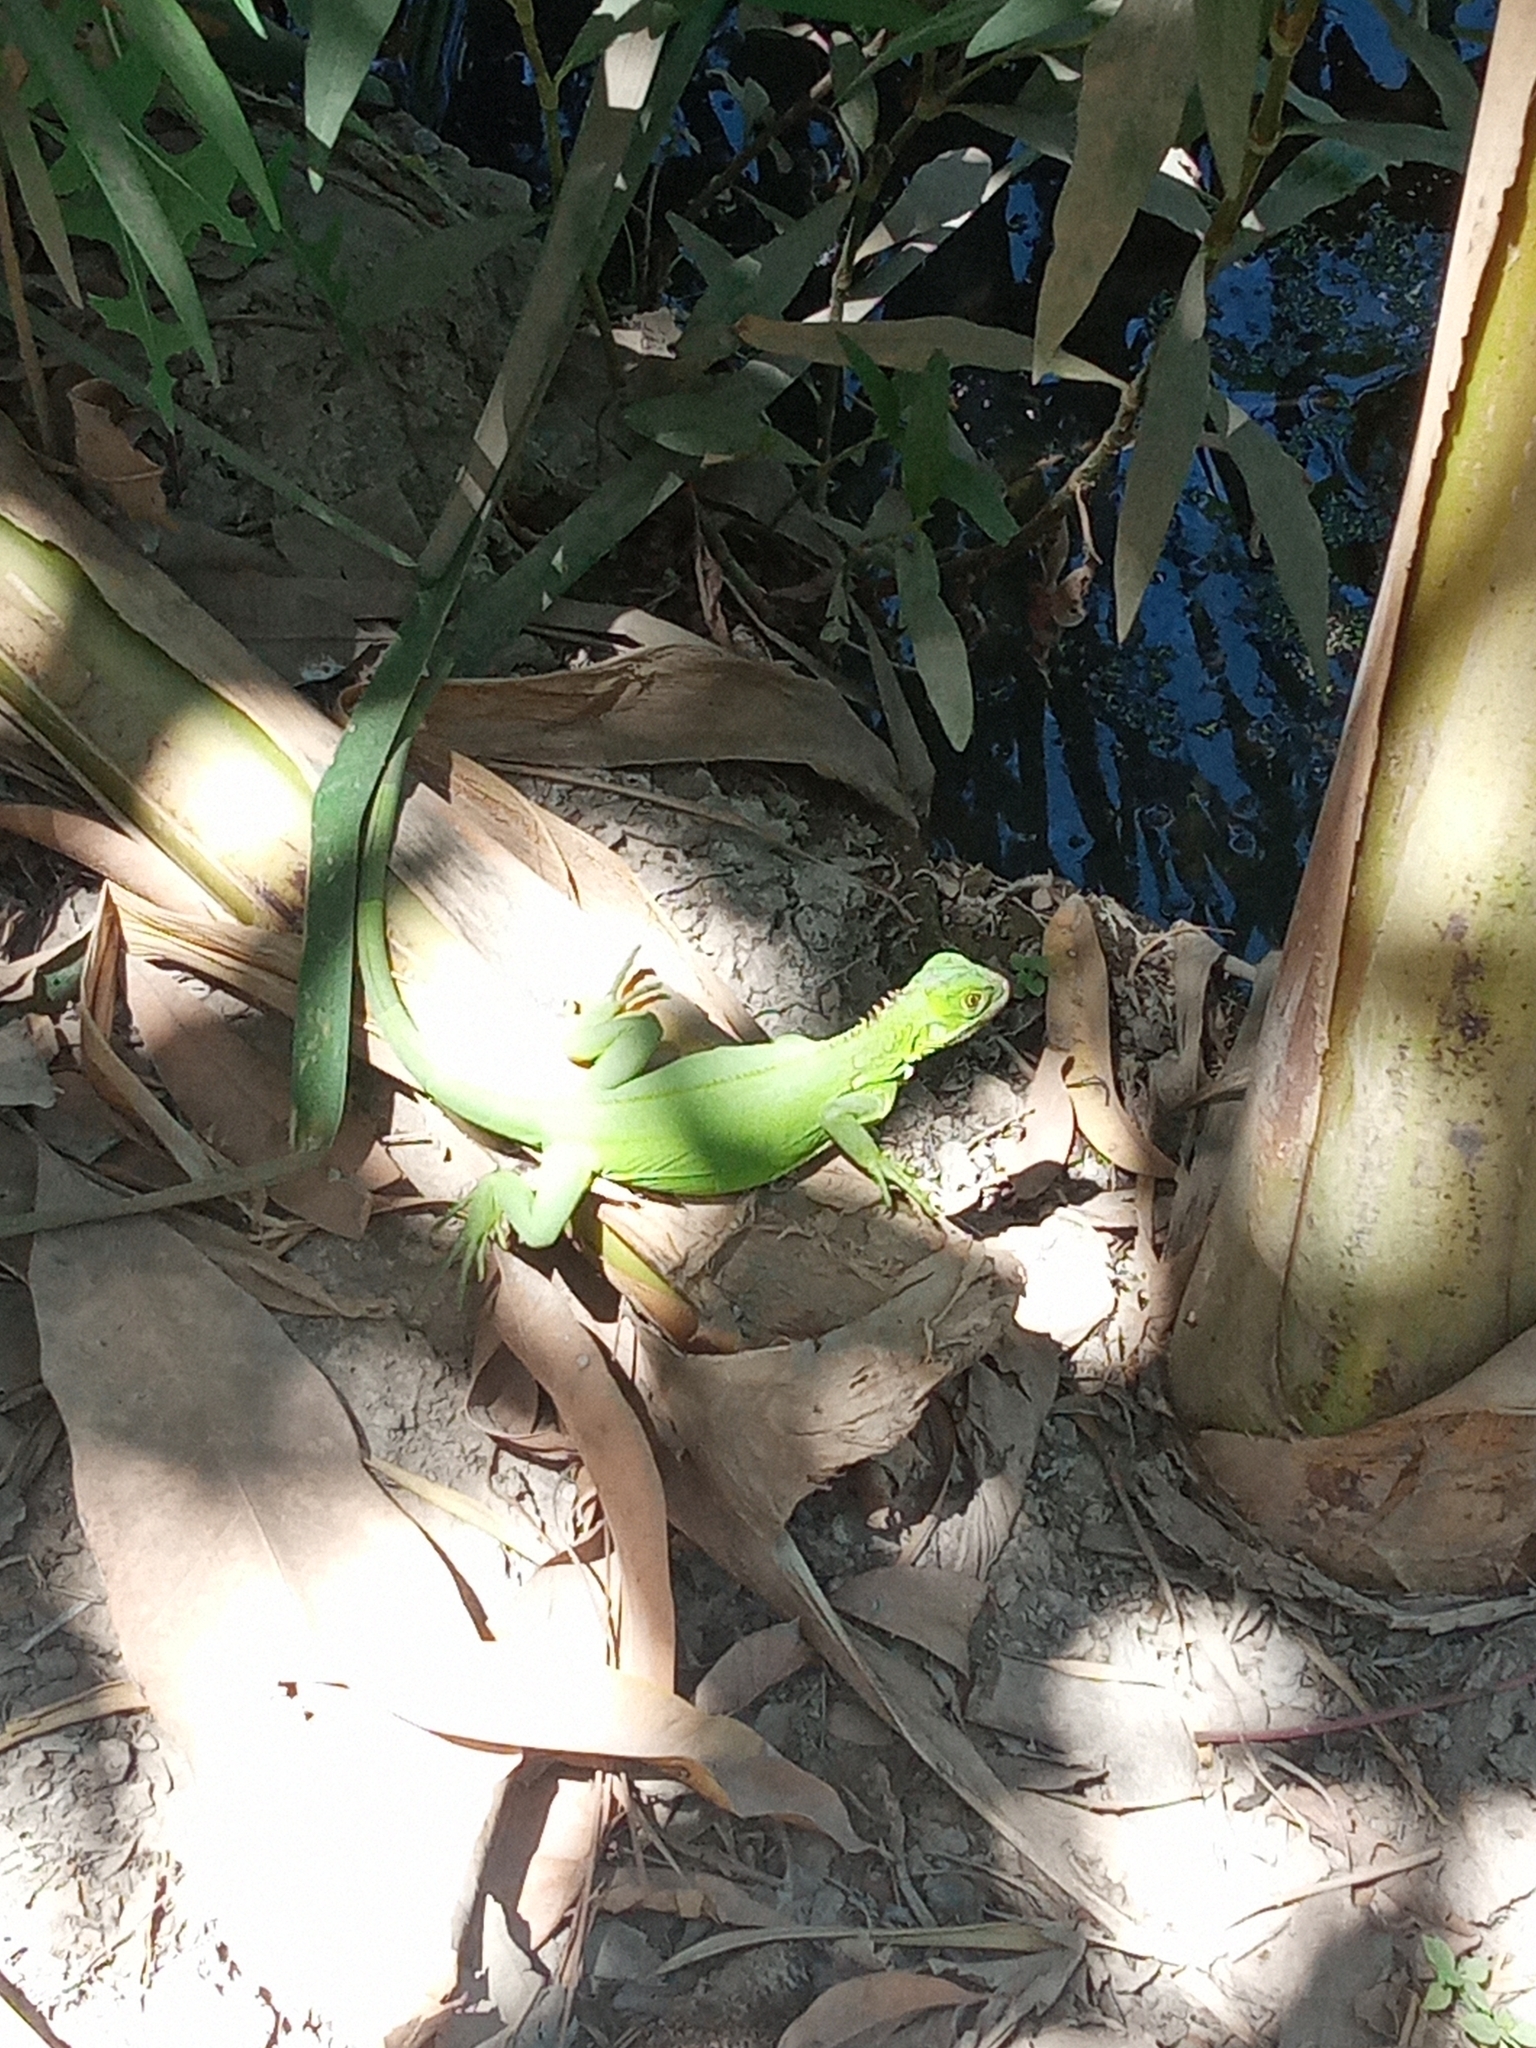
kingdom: Animalia
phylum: Chordata
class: Squamata
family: Iguanidae
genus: Iguana
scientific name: Iguana iguana
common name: Green iguana
